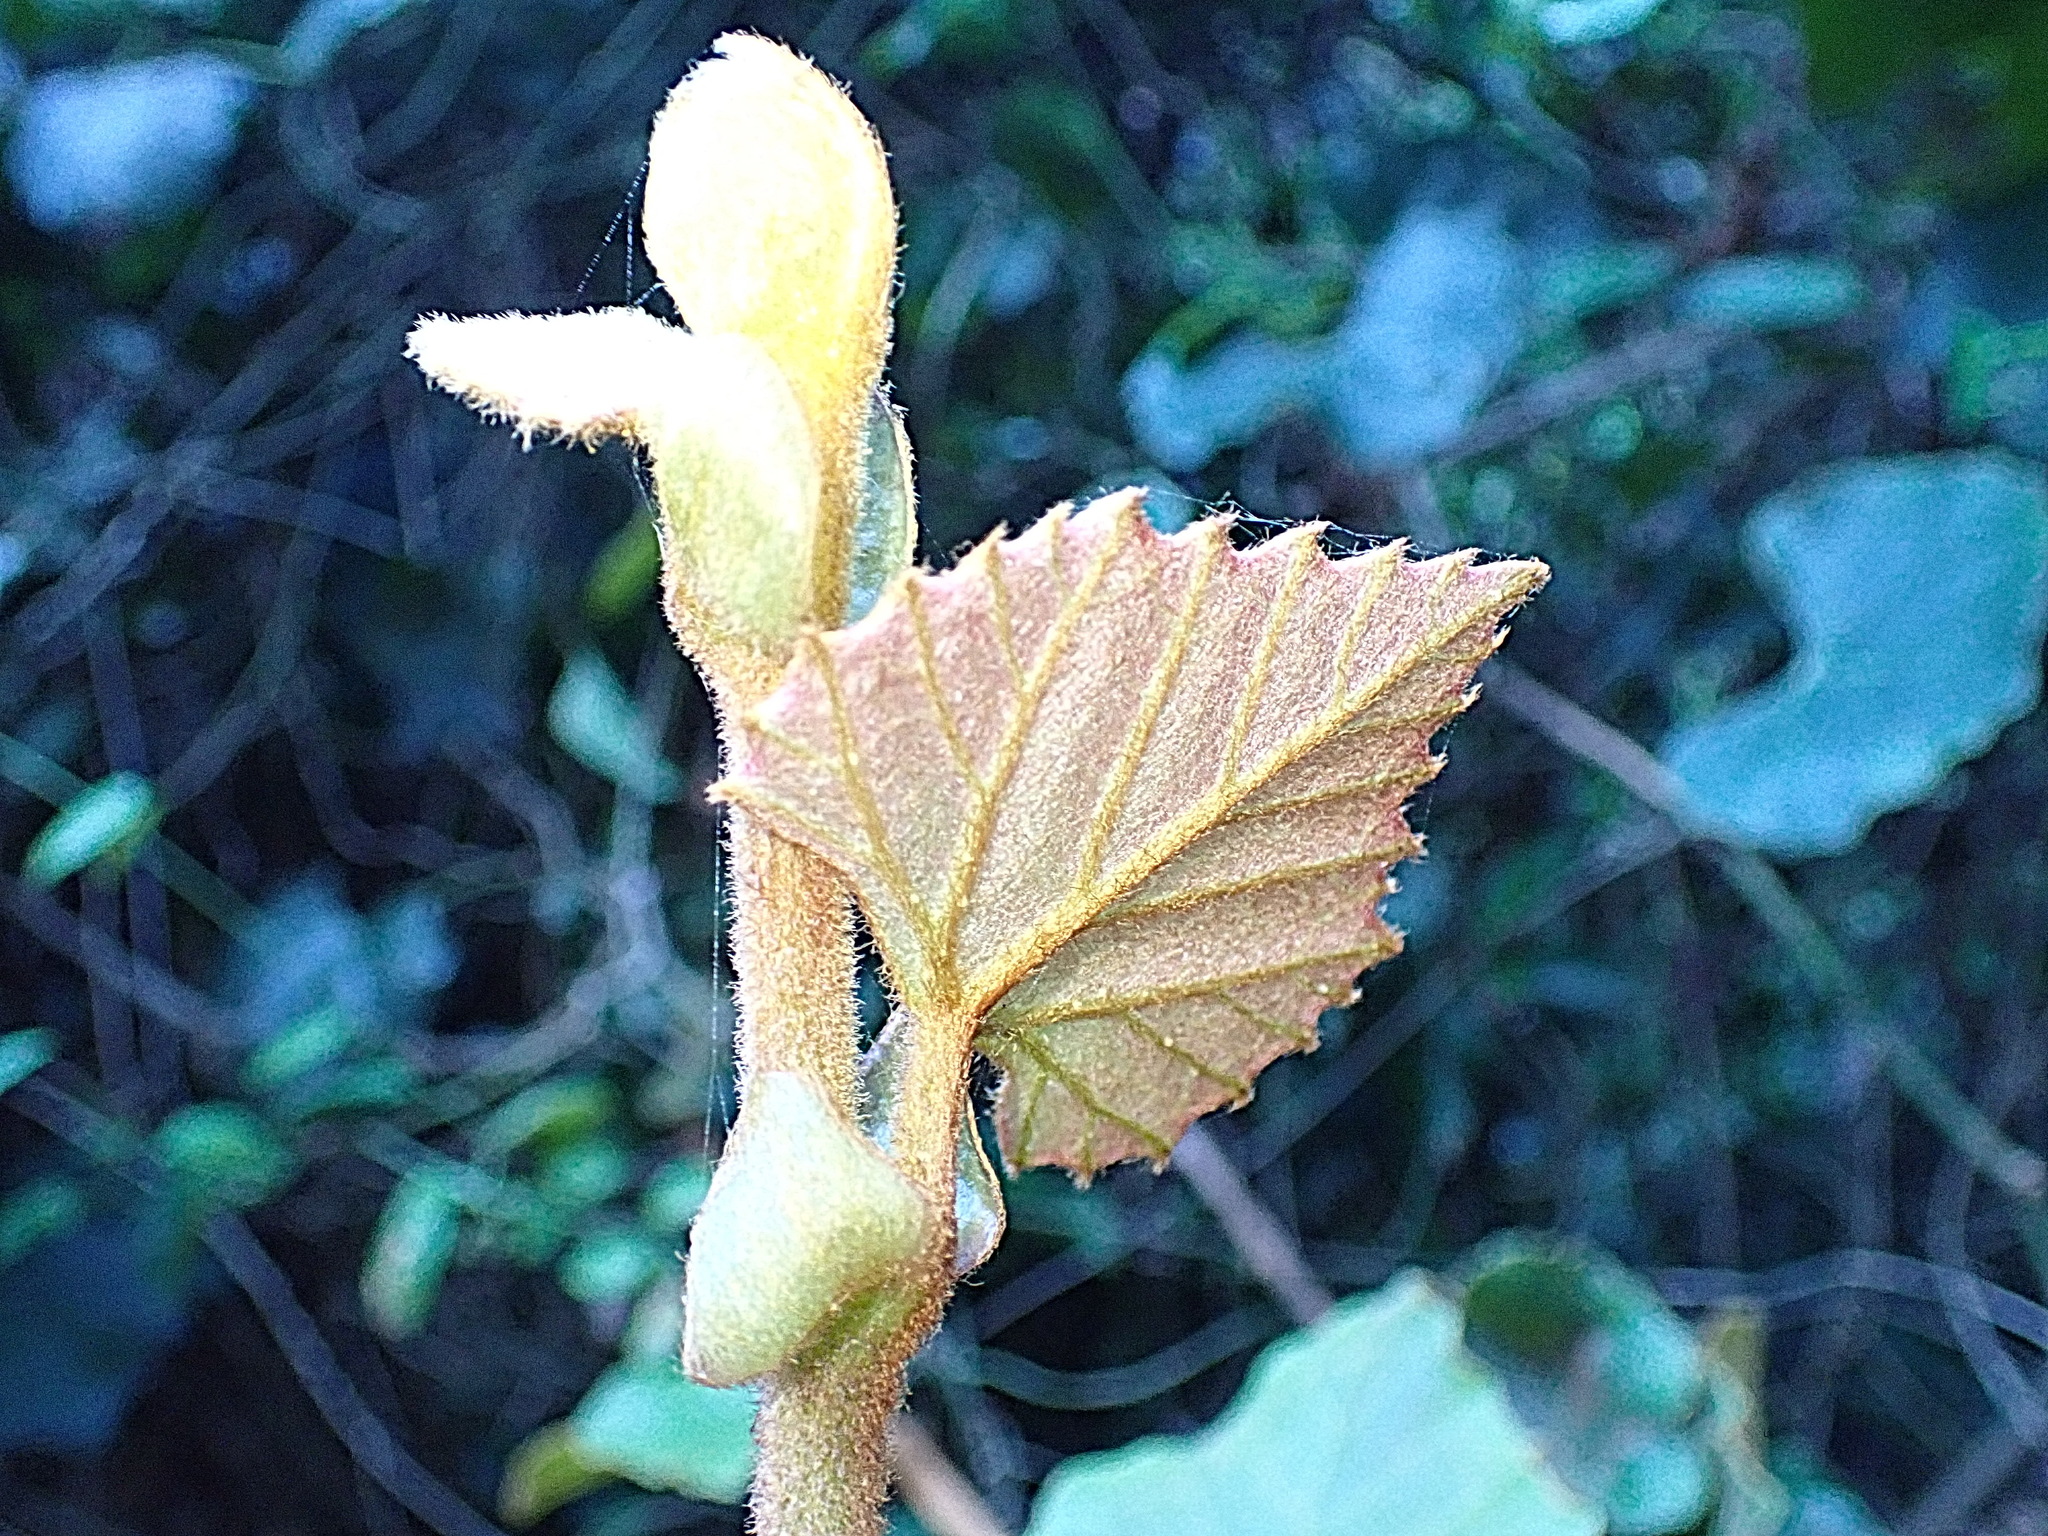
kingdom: Plantae
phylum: Tracheophyta
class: Magnoliopsida
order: Vitales
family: Vitaceae
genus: Rhoicissus
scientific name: Rhoicissus tomentosa
